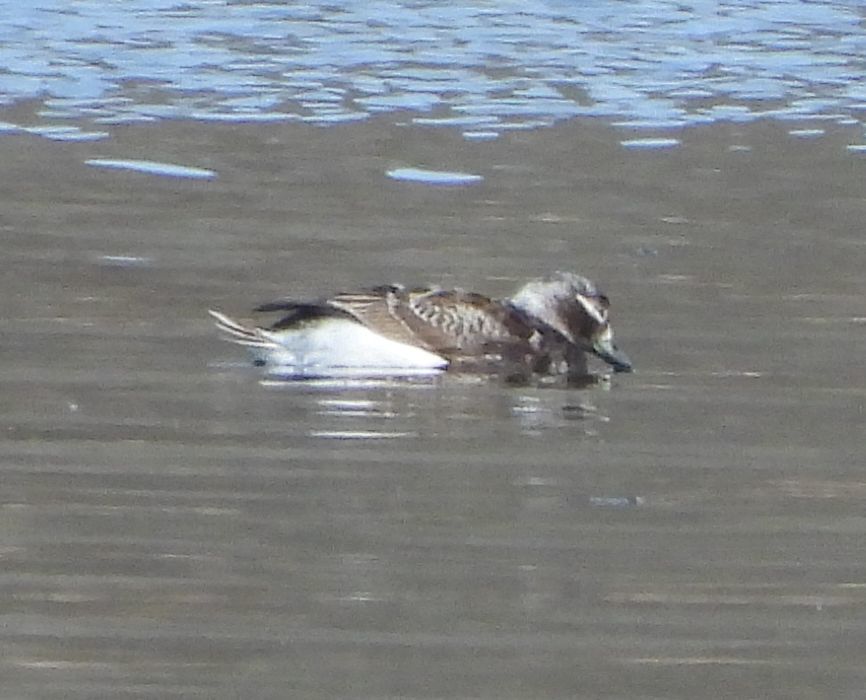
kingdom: Animalia
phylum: Chordata
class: Aves
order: Anseriformes
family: Anatidae
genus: Clangula
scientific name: Clangula hyemalis
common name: Long-tailed duck
